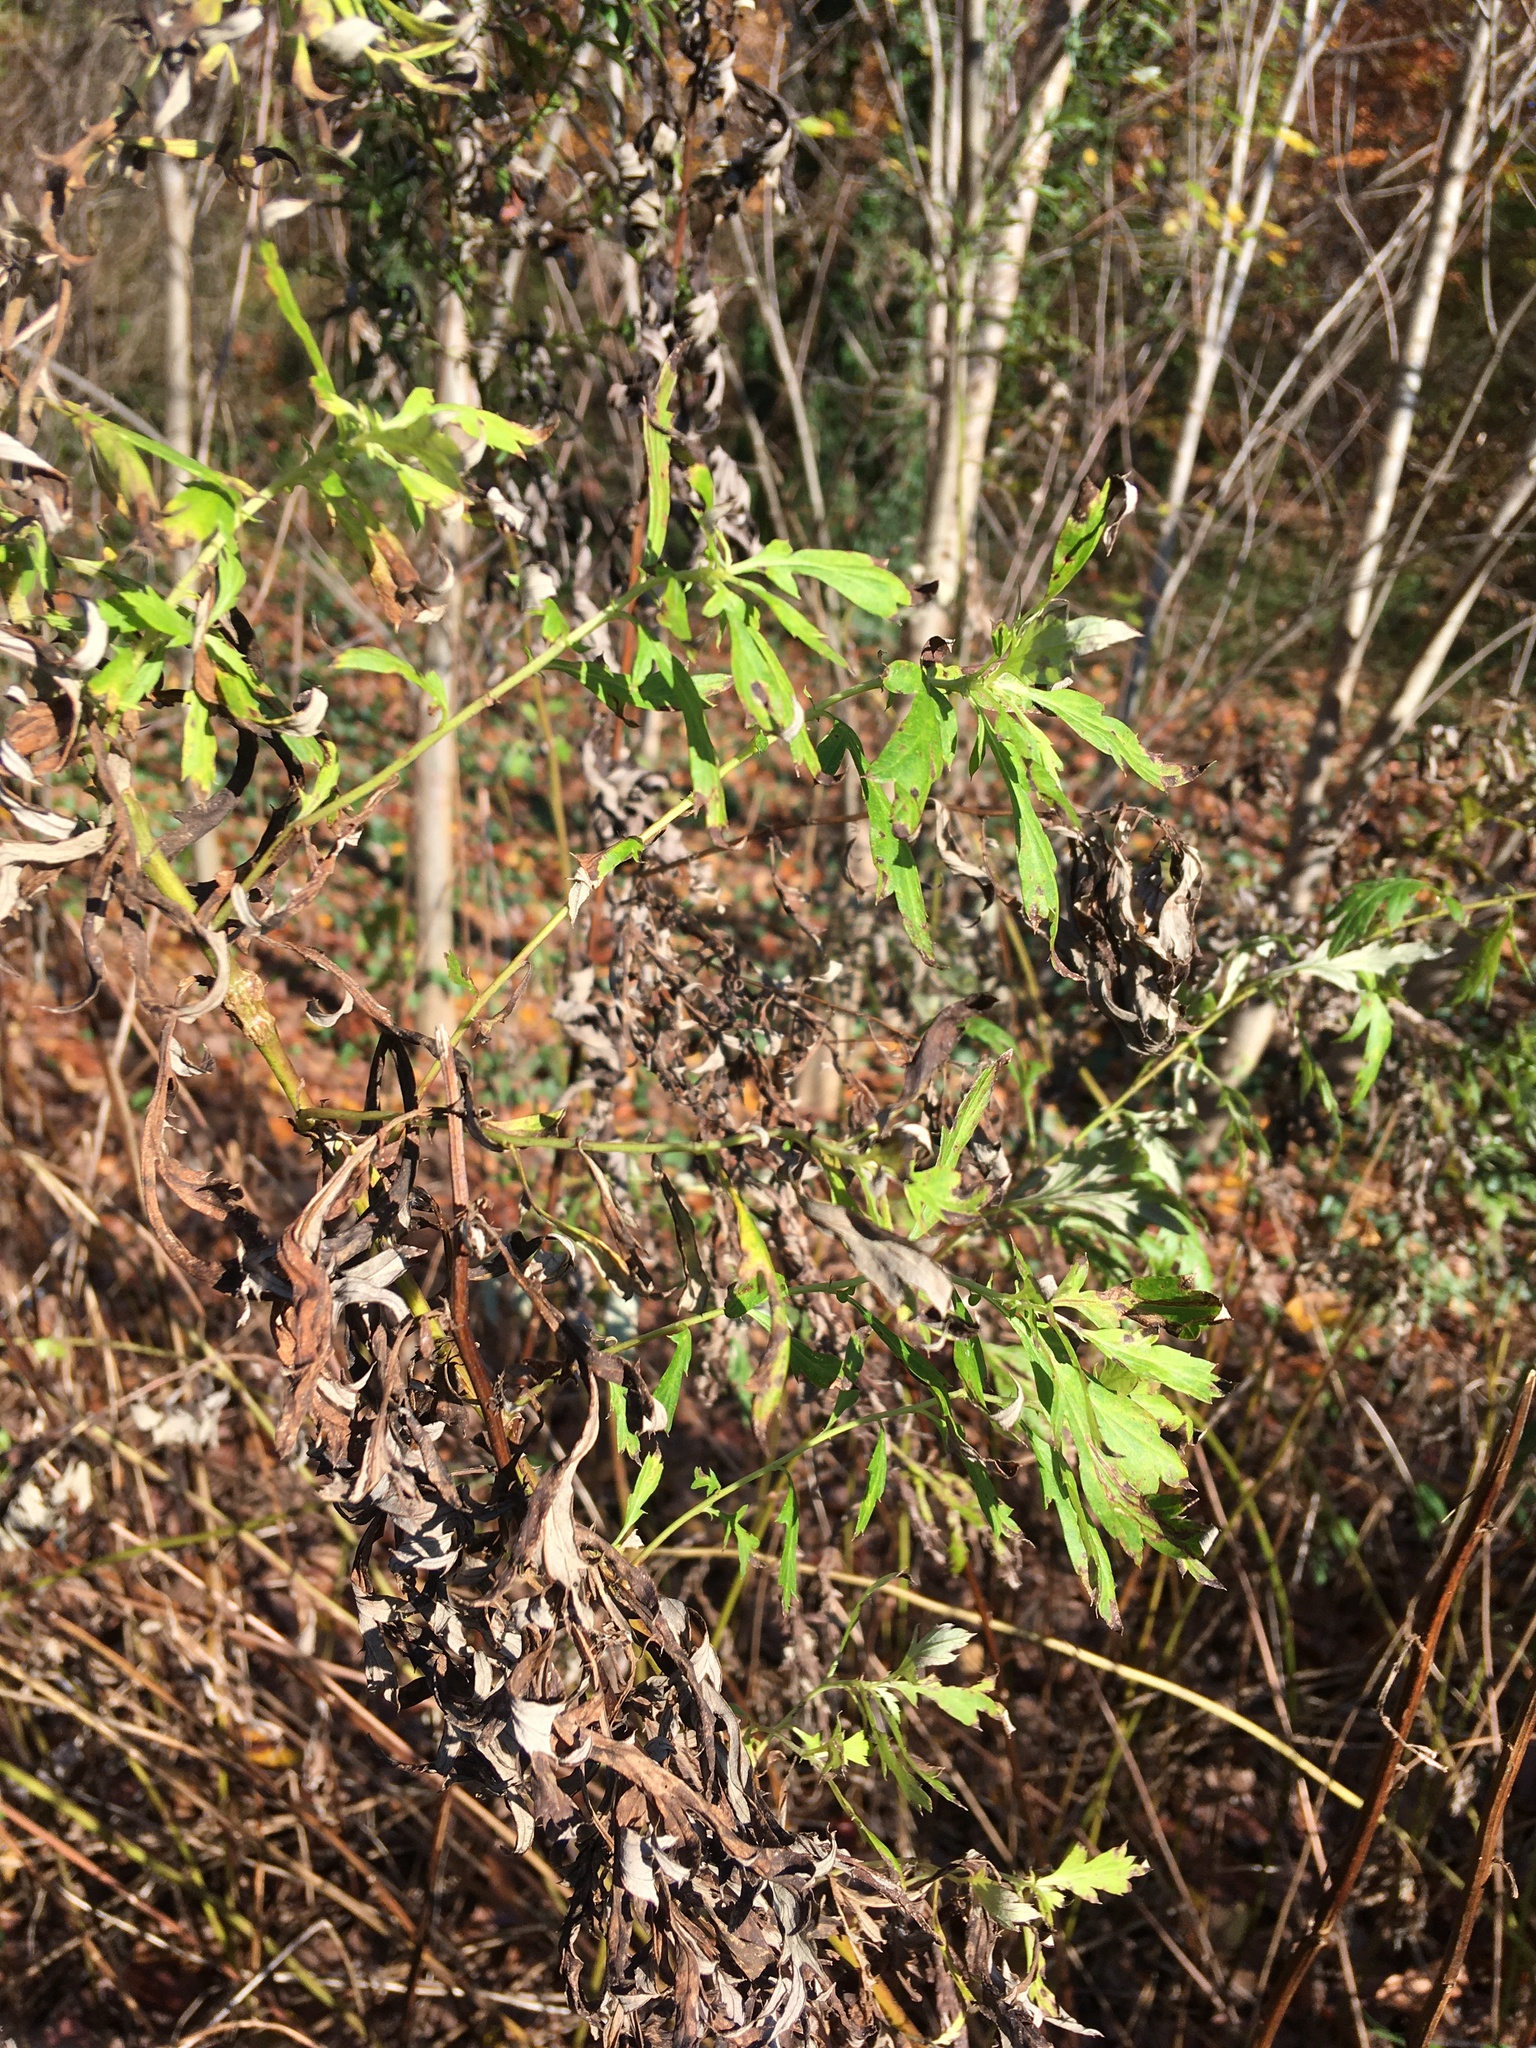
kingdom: Plantae
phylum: Tracheophyta
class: Magnoliopsida
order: Asterales
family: Asteraceae
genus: Artemisia
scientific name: Artemisia vulgaris
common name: Mugwort
